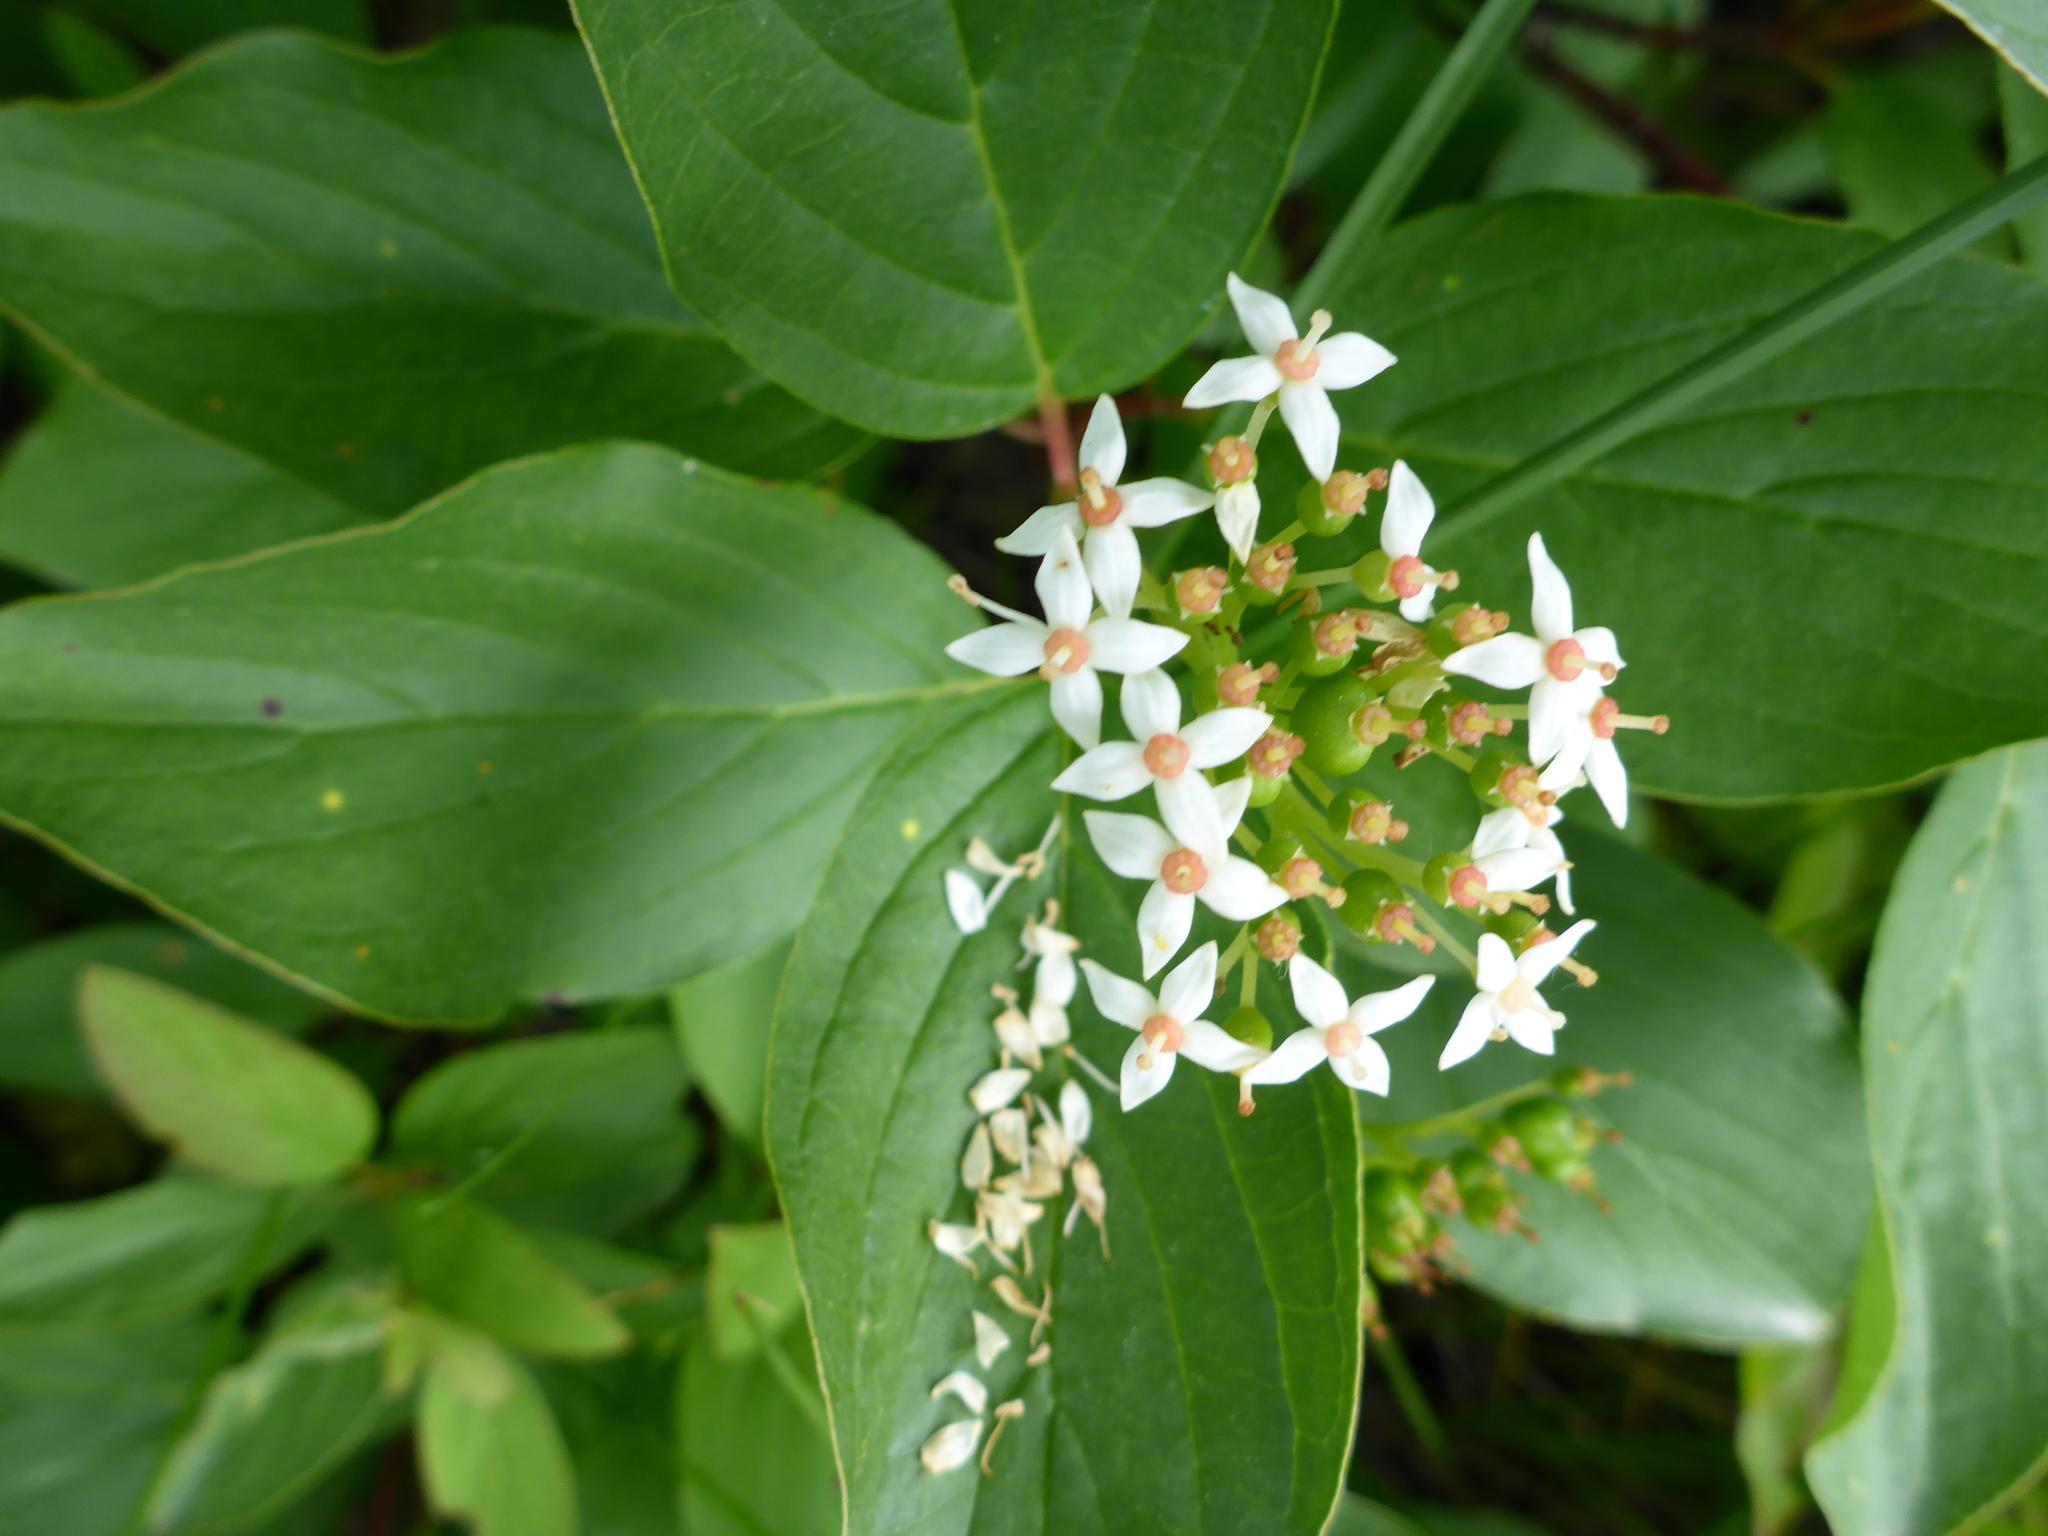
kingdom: Plantae
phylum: Tracheophyta
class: Magnoliopsida
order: Cornales
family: Cornaceae
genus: Cornus
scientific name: Cornus sericea
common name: Red-osier dogwood
